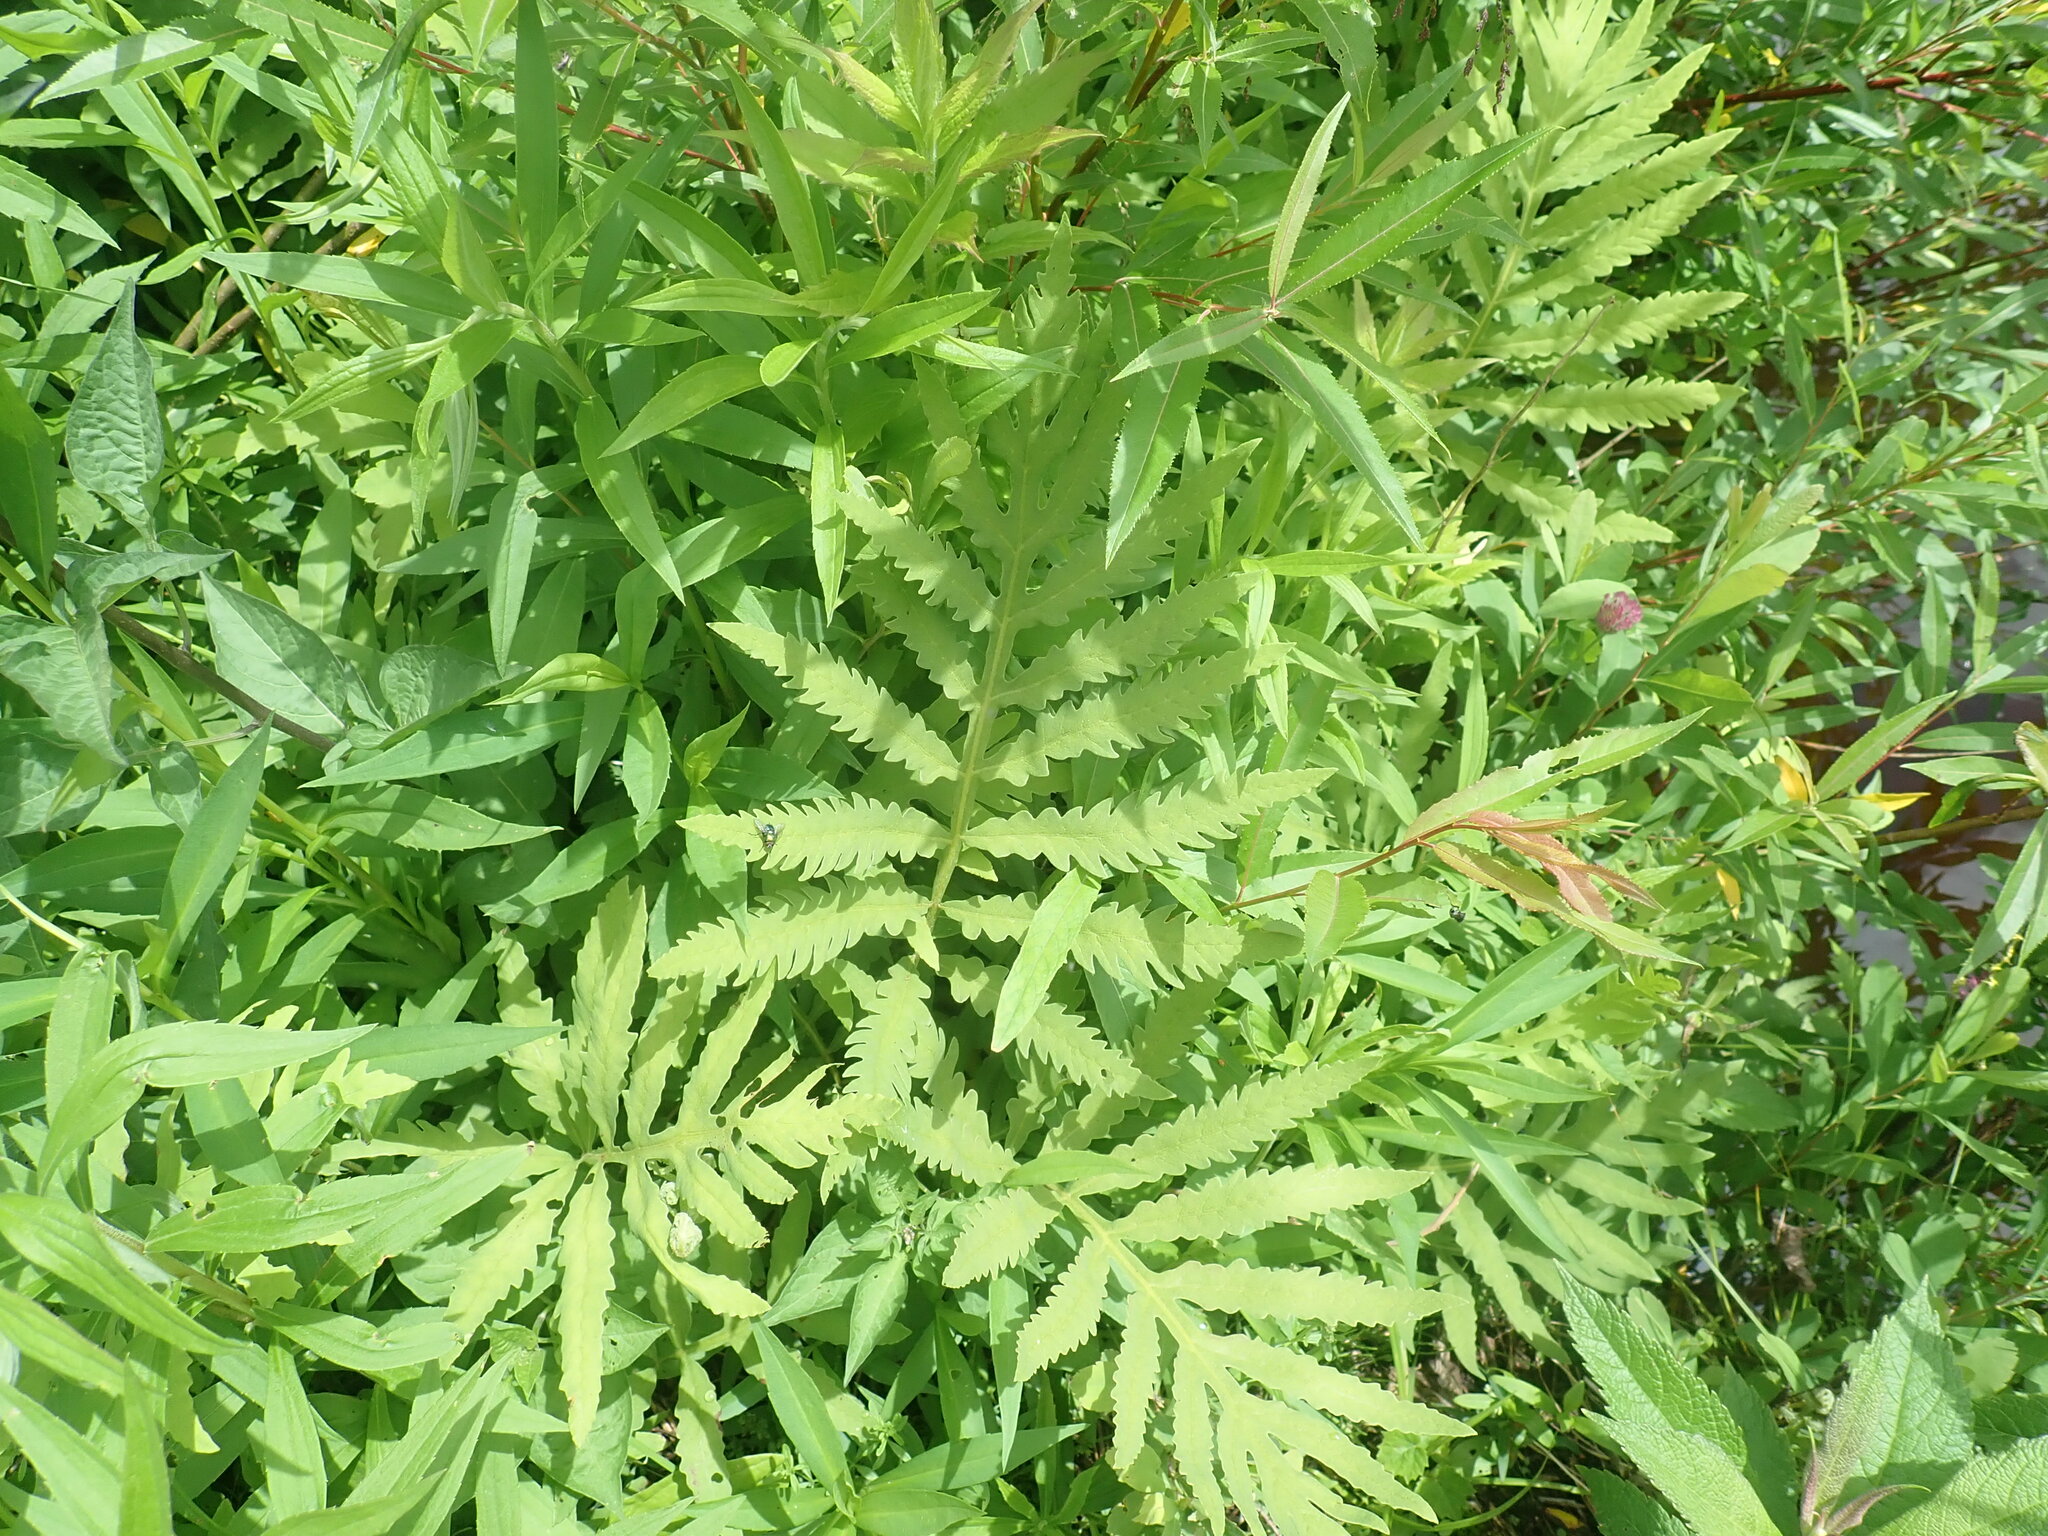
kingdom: Plantae
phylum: Tracheophyta
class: Polypodiopsida
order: Polypodiales
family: Onocleaceae
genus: Onoclea
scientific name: Onoclea sensibilis
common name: Sensitive fern
